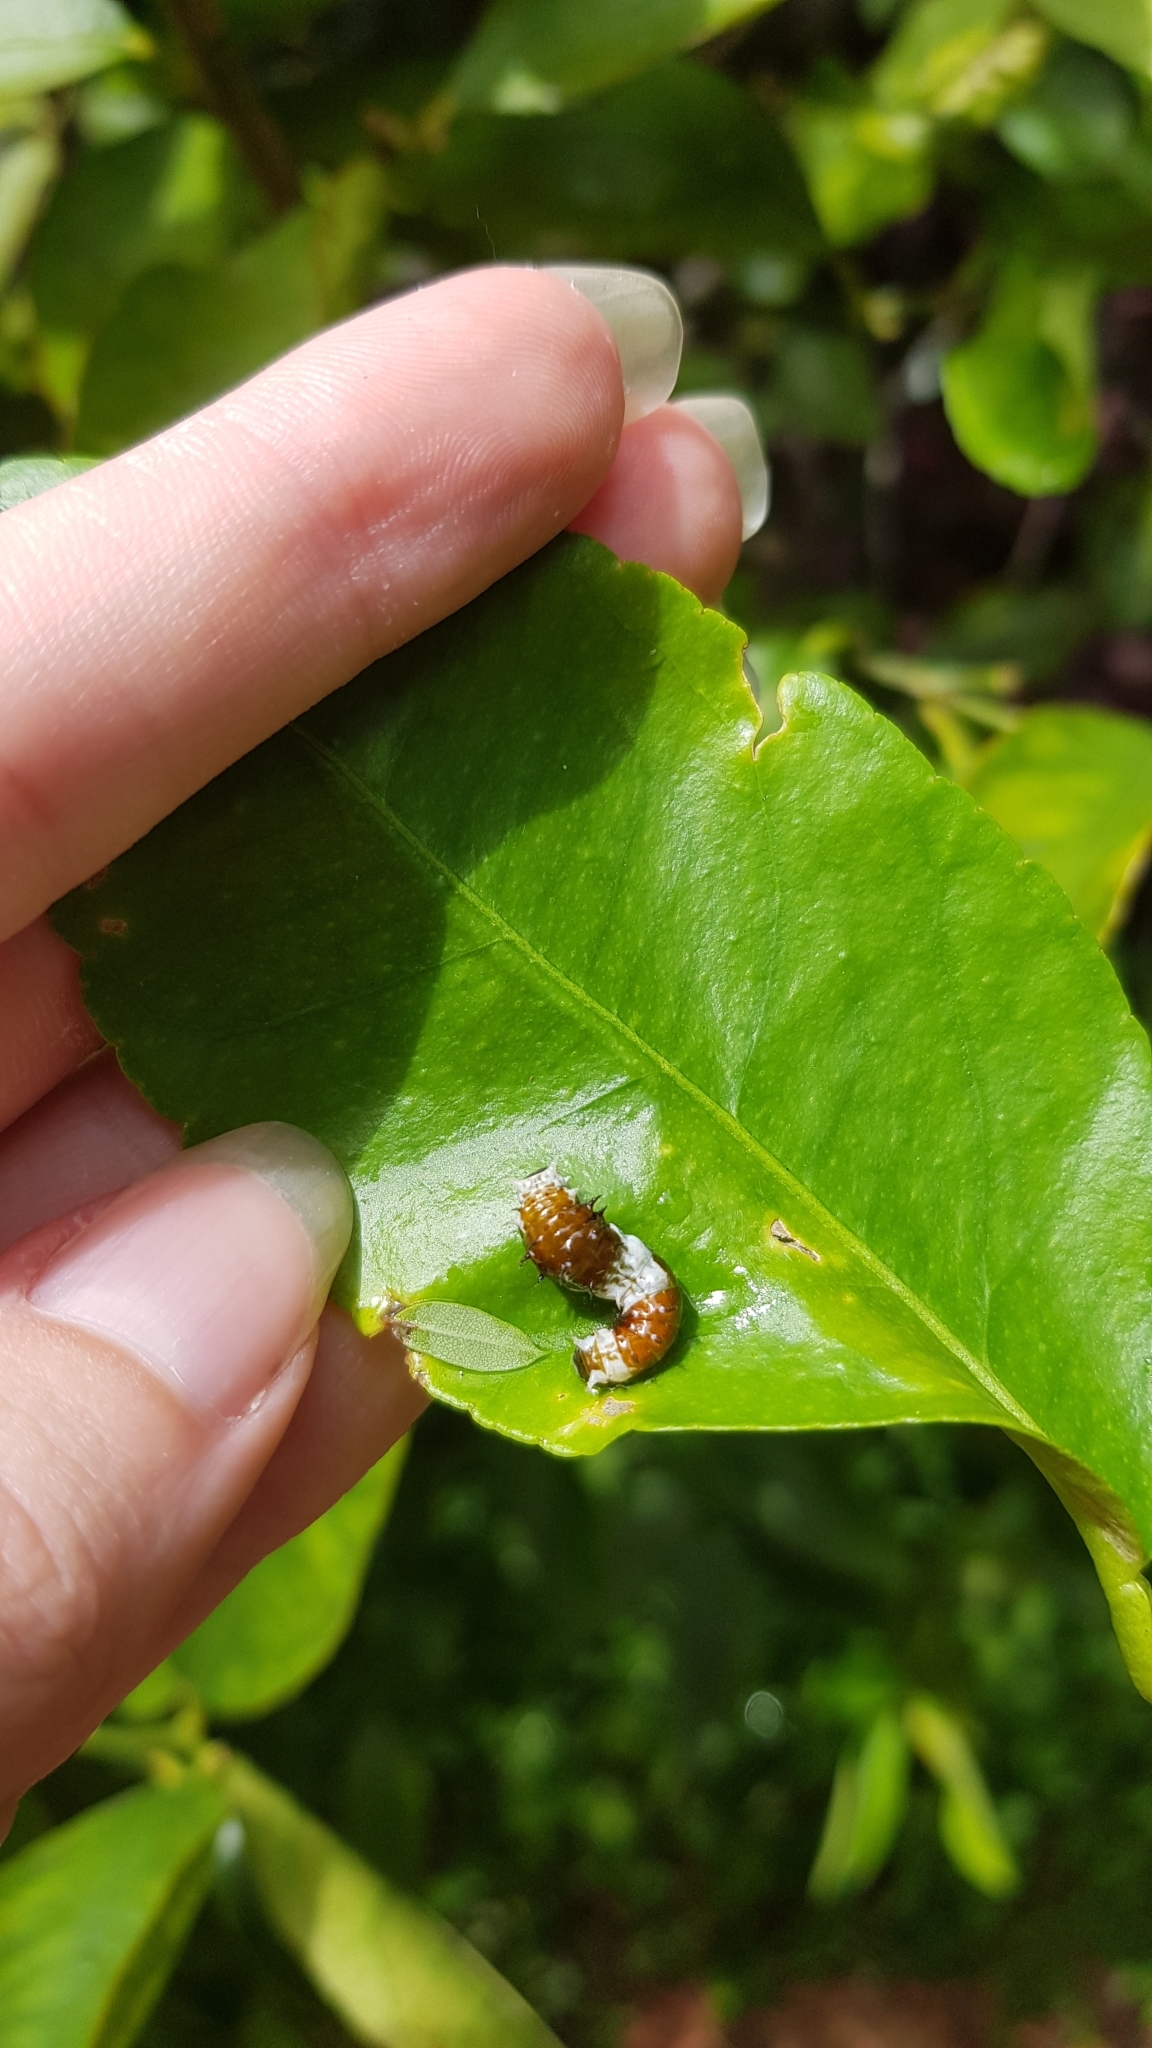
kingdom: Animalia
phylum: Arthropoda
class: Insecta
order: Lepidoptera
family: Papilionidae
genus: Papilio
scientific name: Papilio aegeus
